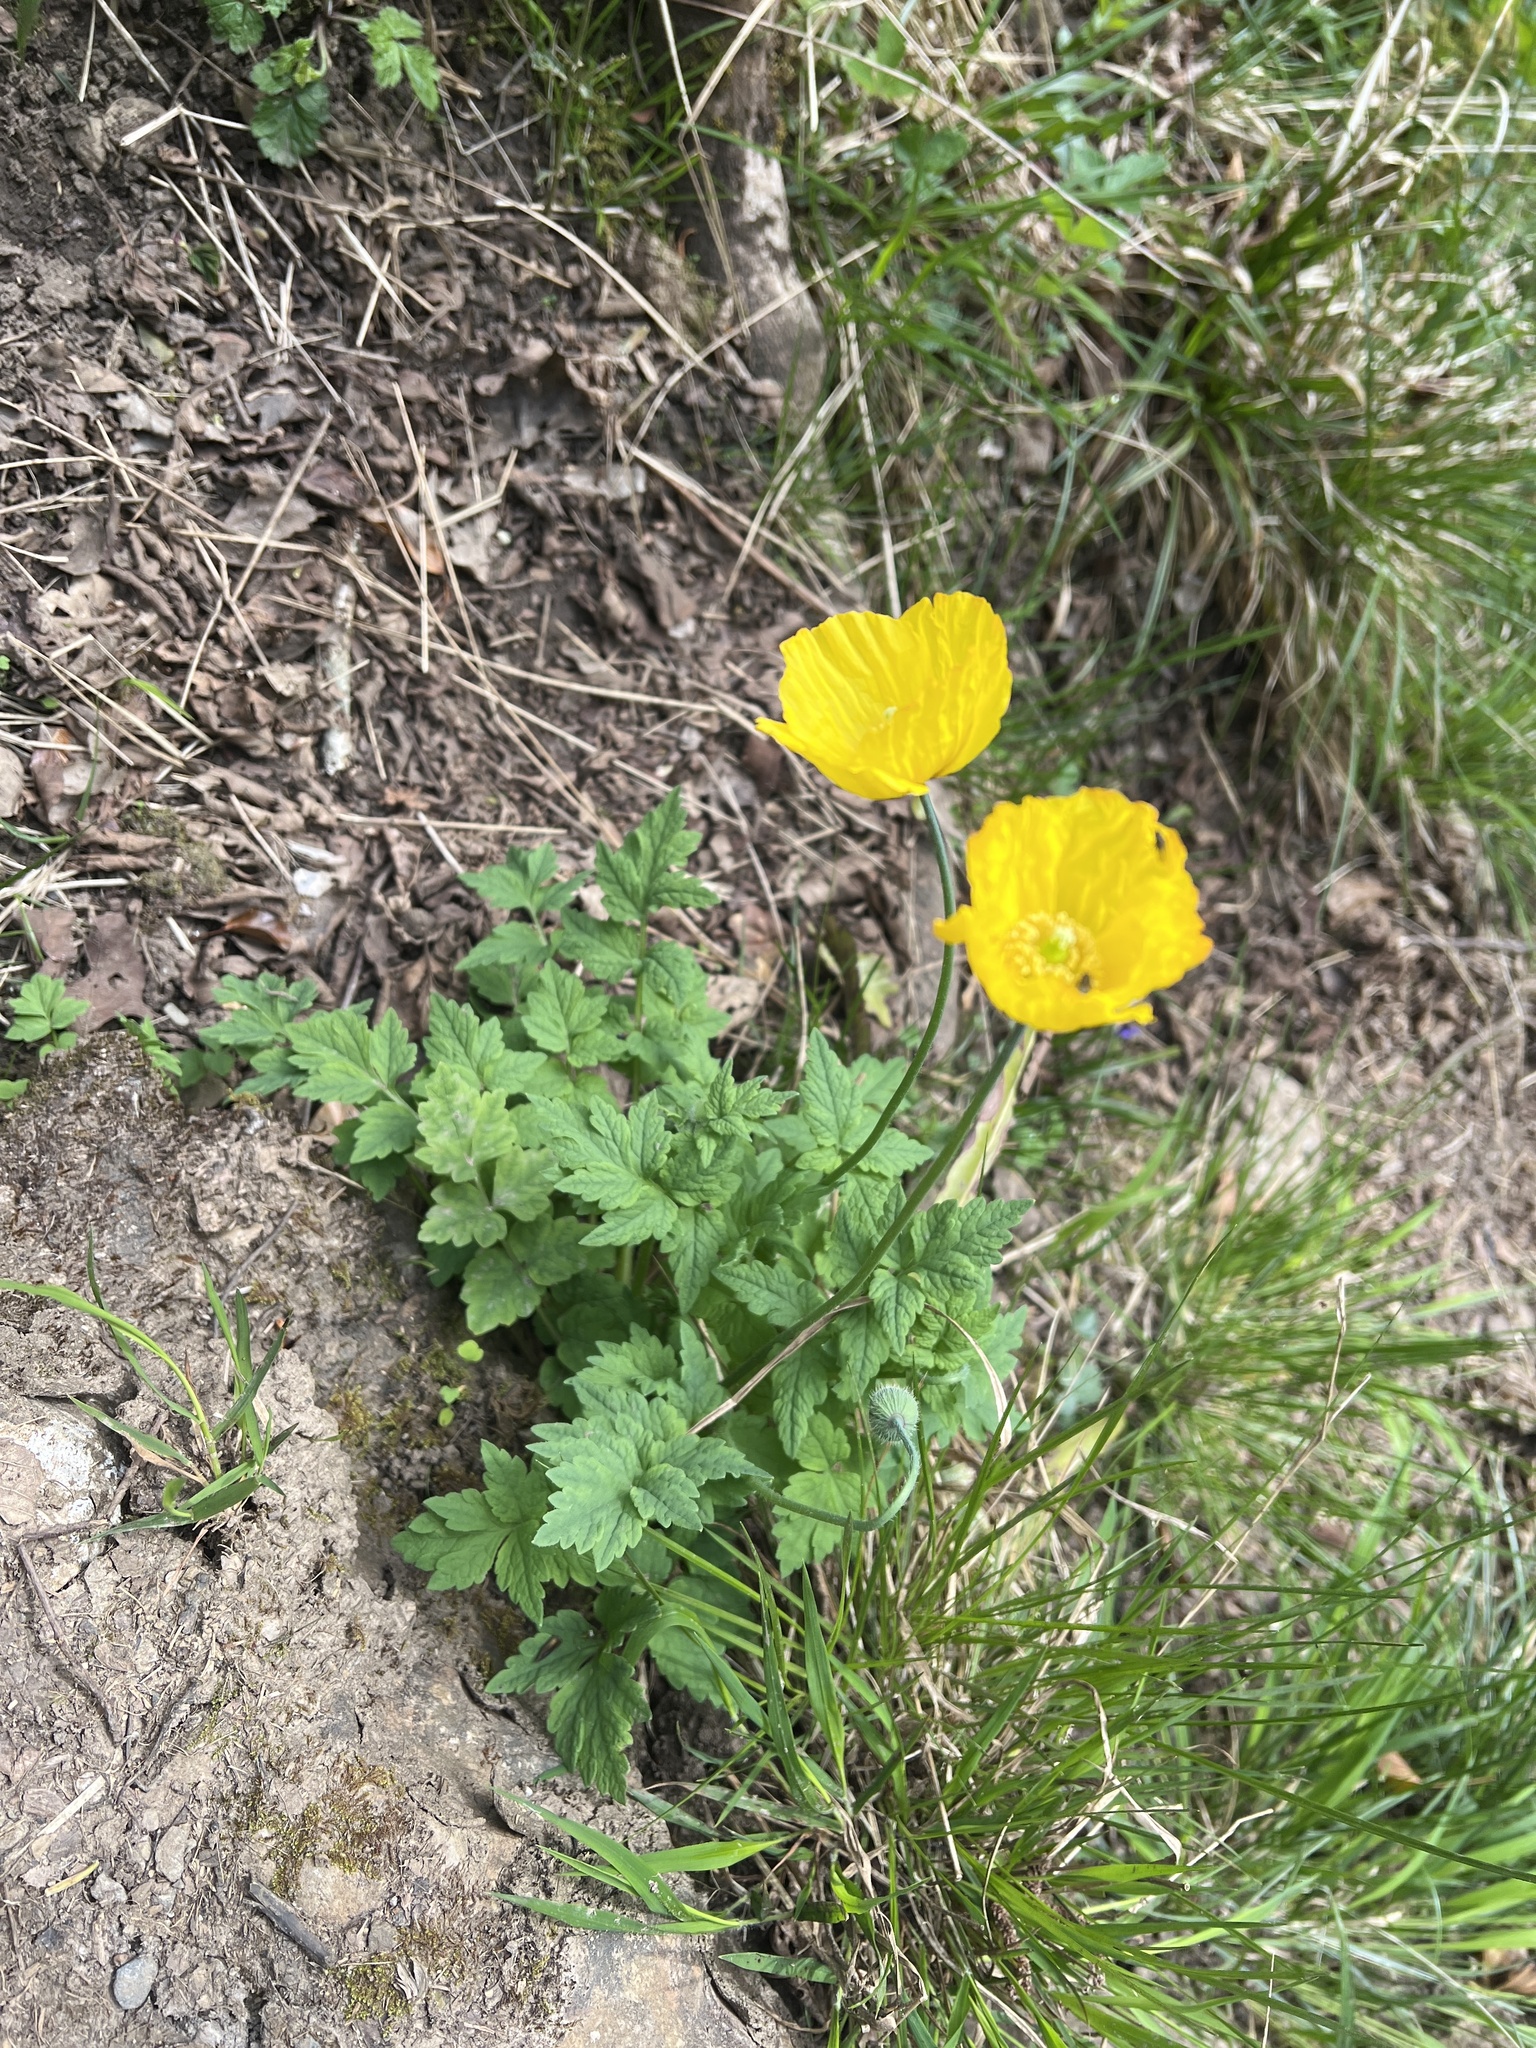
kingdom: Plantae
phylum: Tracheophyta
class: Magnoliopsida
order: Ranunculales
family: Papaveraceae
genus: Papaver
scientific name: Papaver cambricum
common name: Poppy
